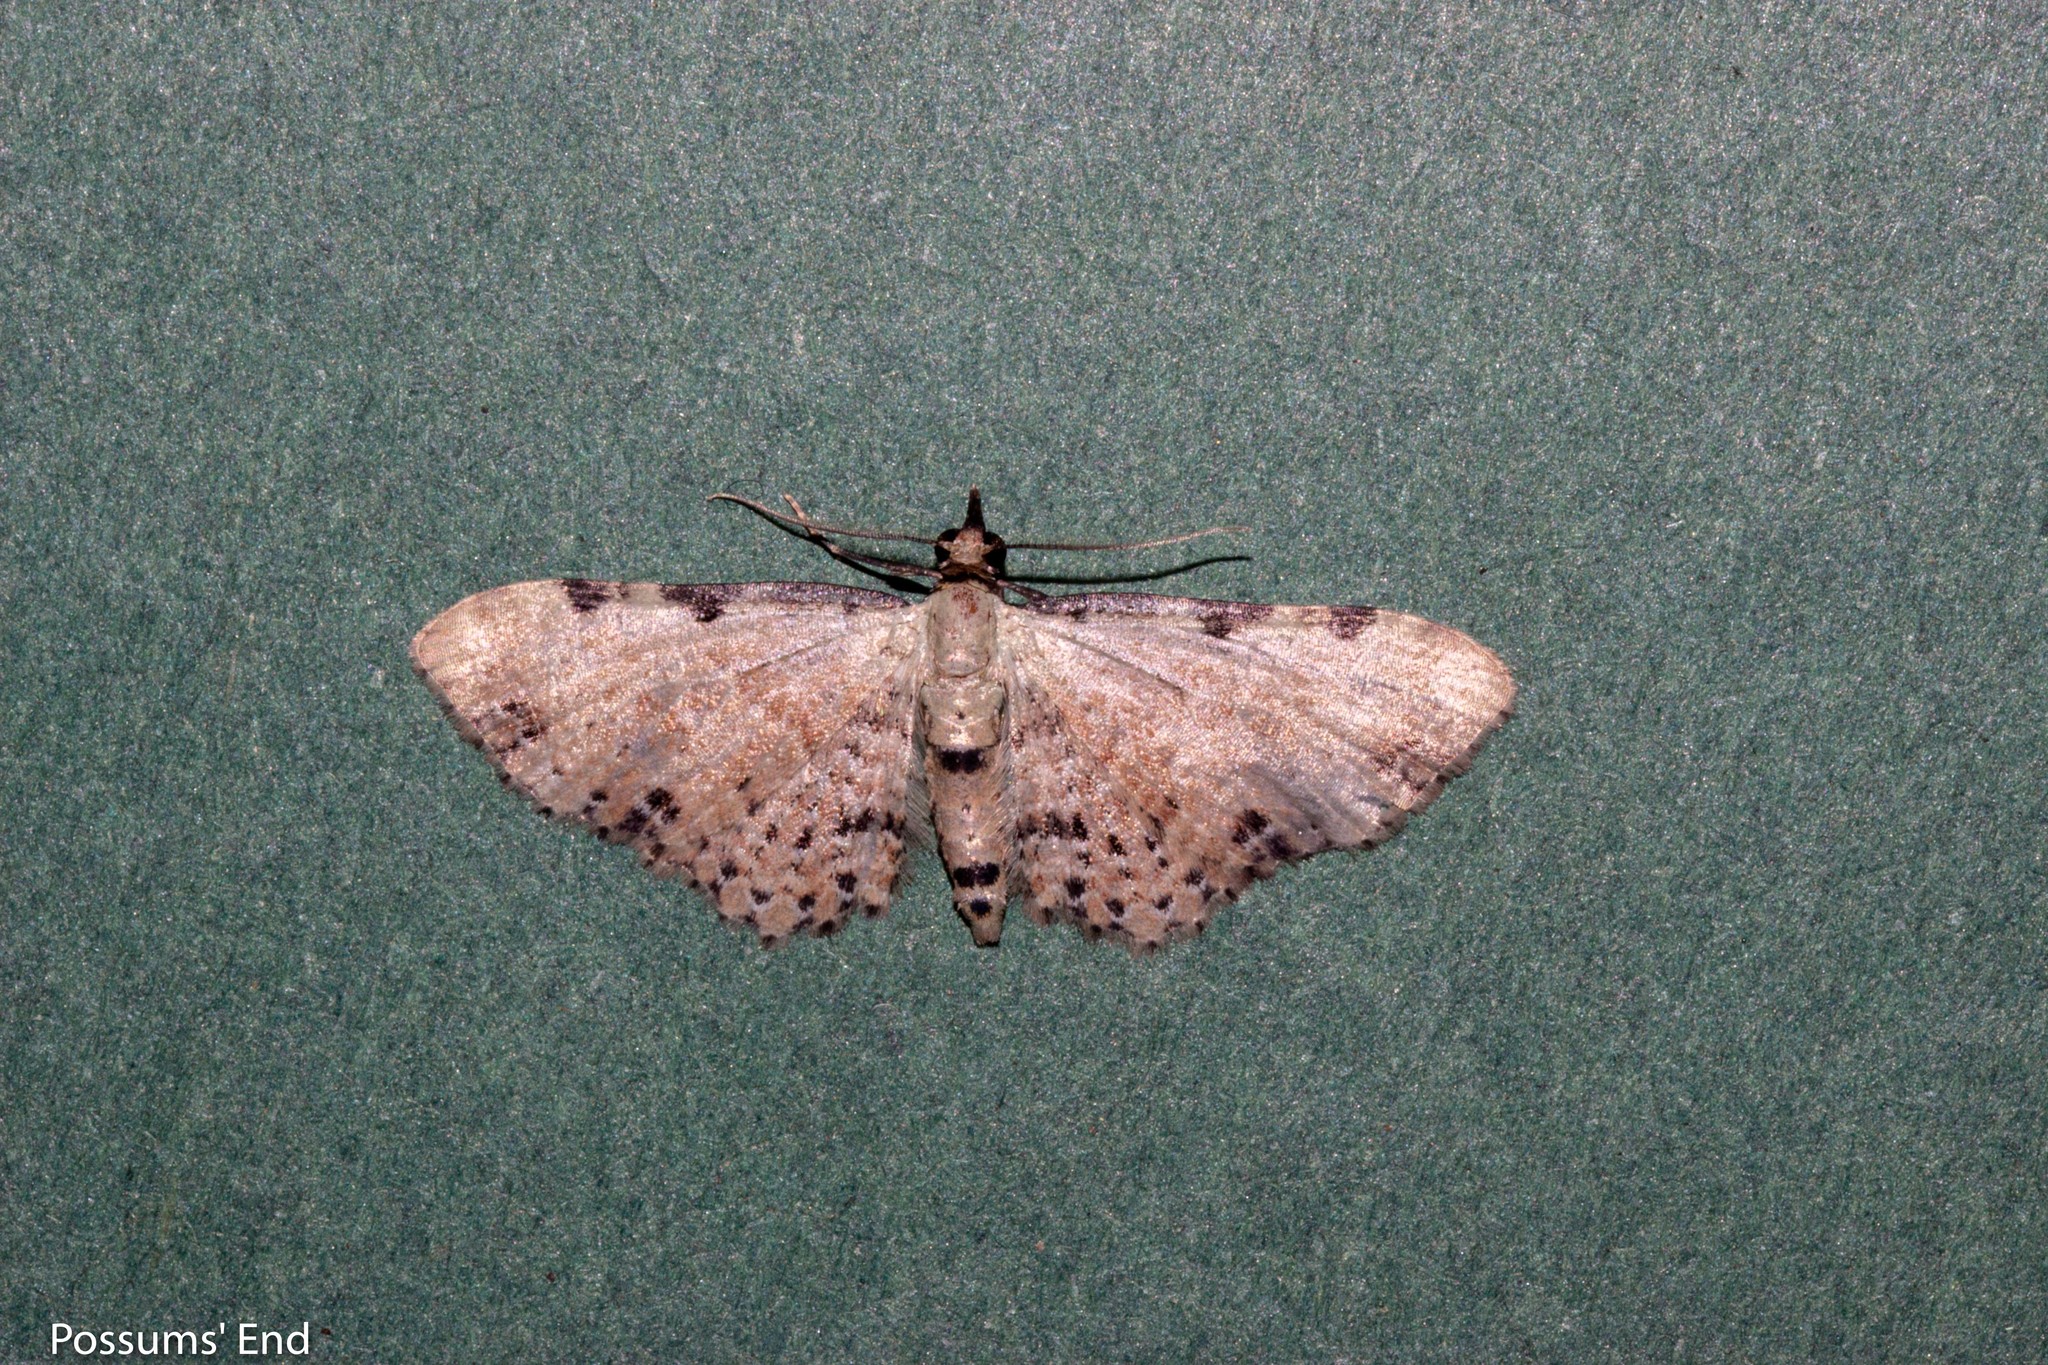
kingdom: Animalia
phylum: Arthropoda
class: Insecta
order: Lepidoptera
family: Geometridae
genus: Pasiphila
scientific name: Pasiphila fumipalpata
